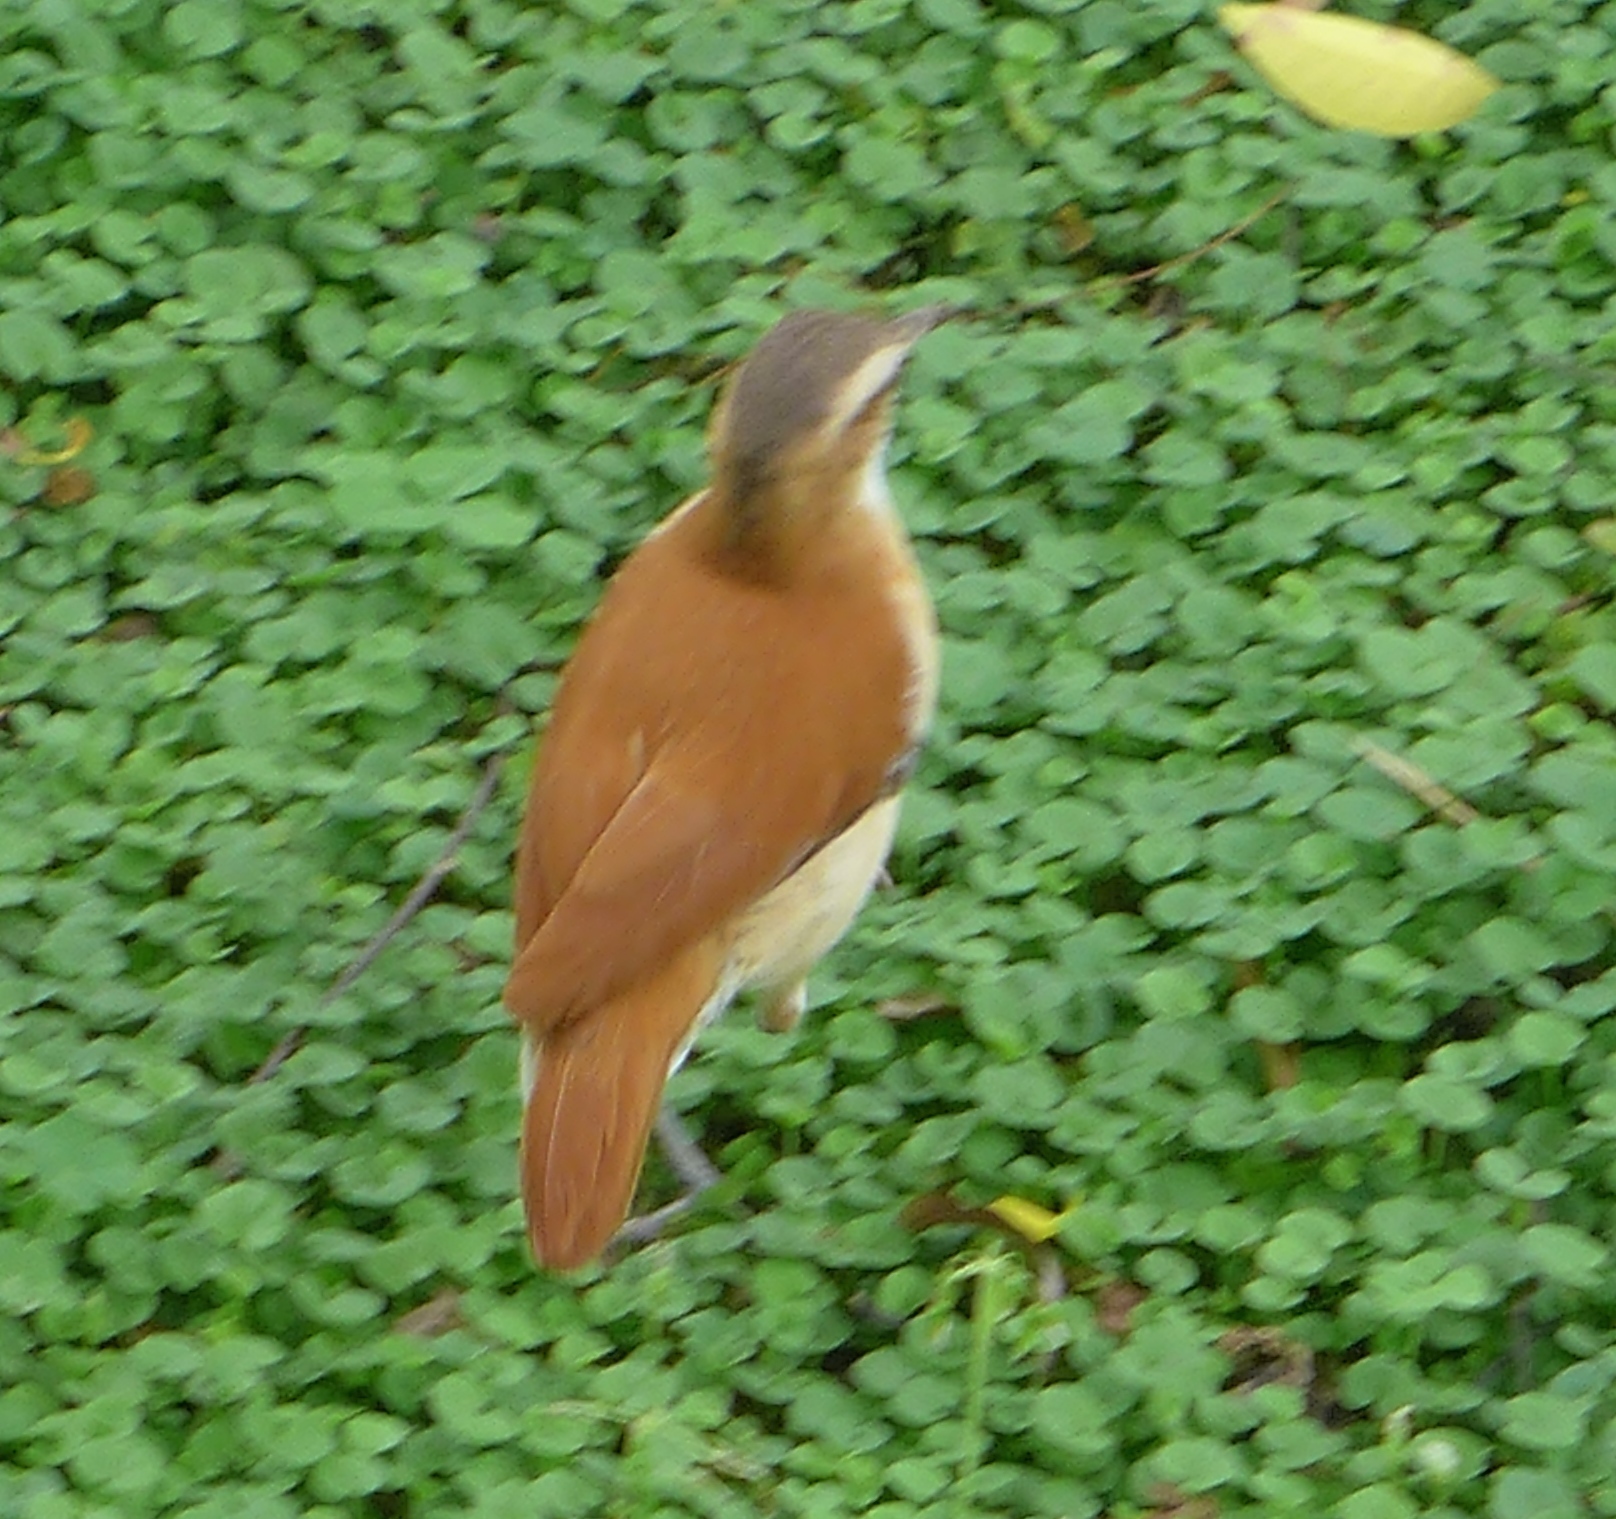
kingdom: Animalia
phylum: Chordata
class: Aves
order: Passeriformes
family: Furnariidae
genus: Furnarius
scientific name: Furnarius leucopus
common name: Pale-legged hornero
